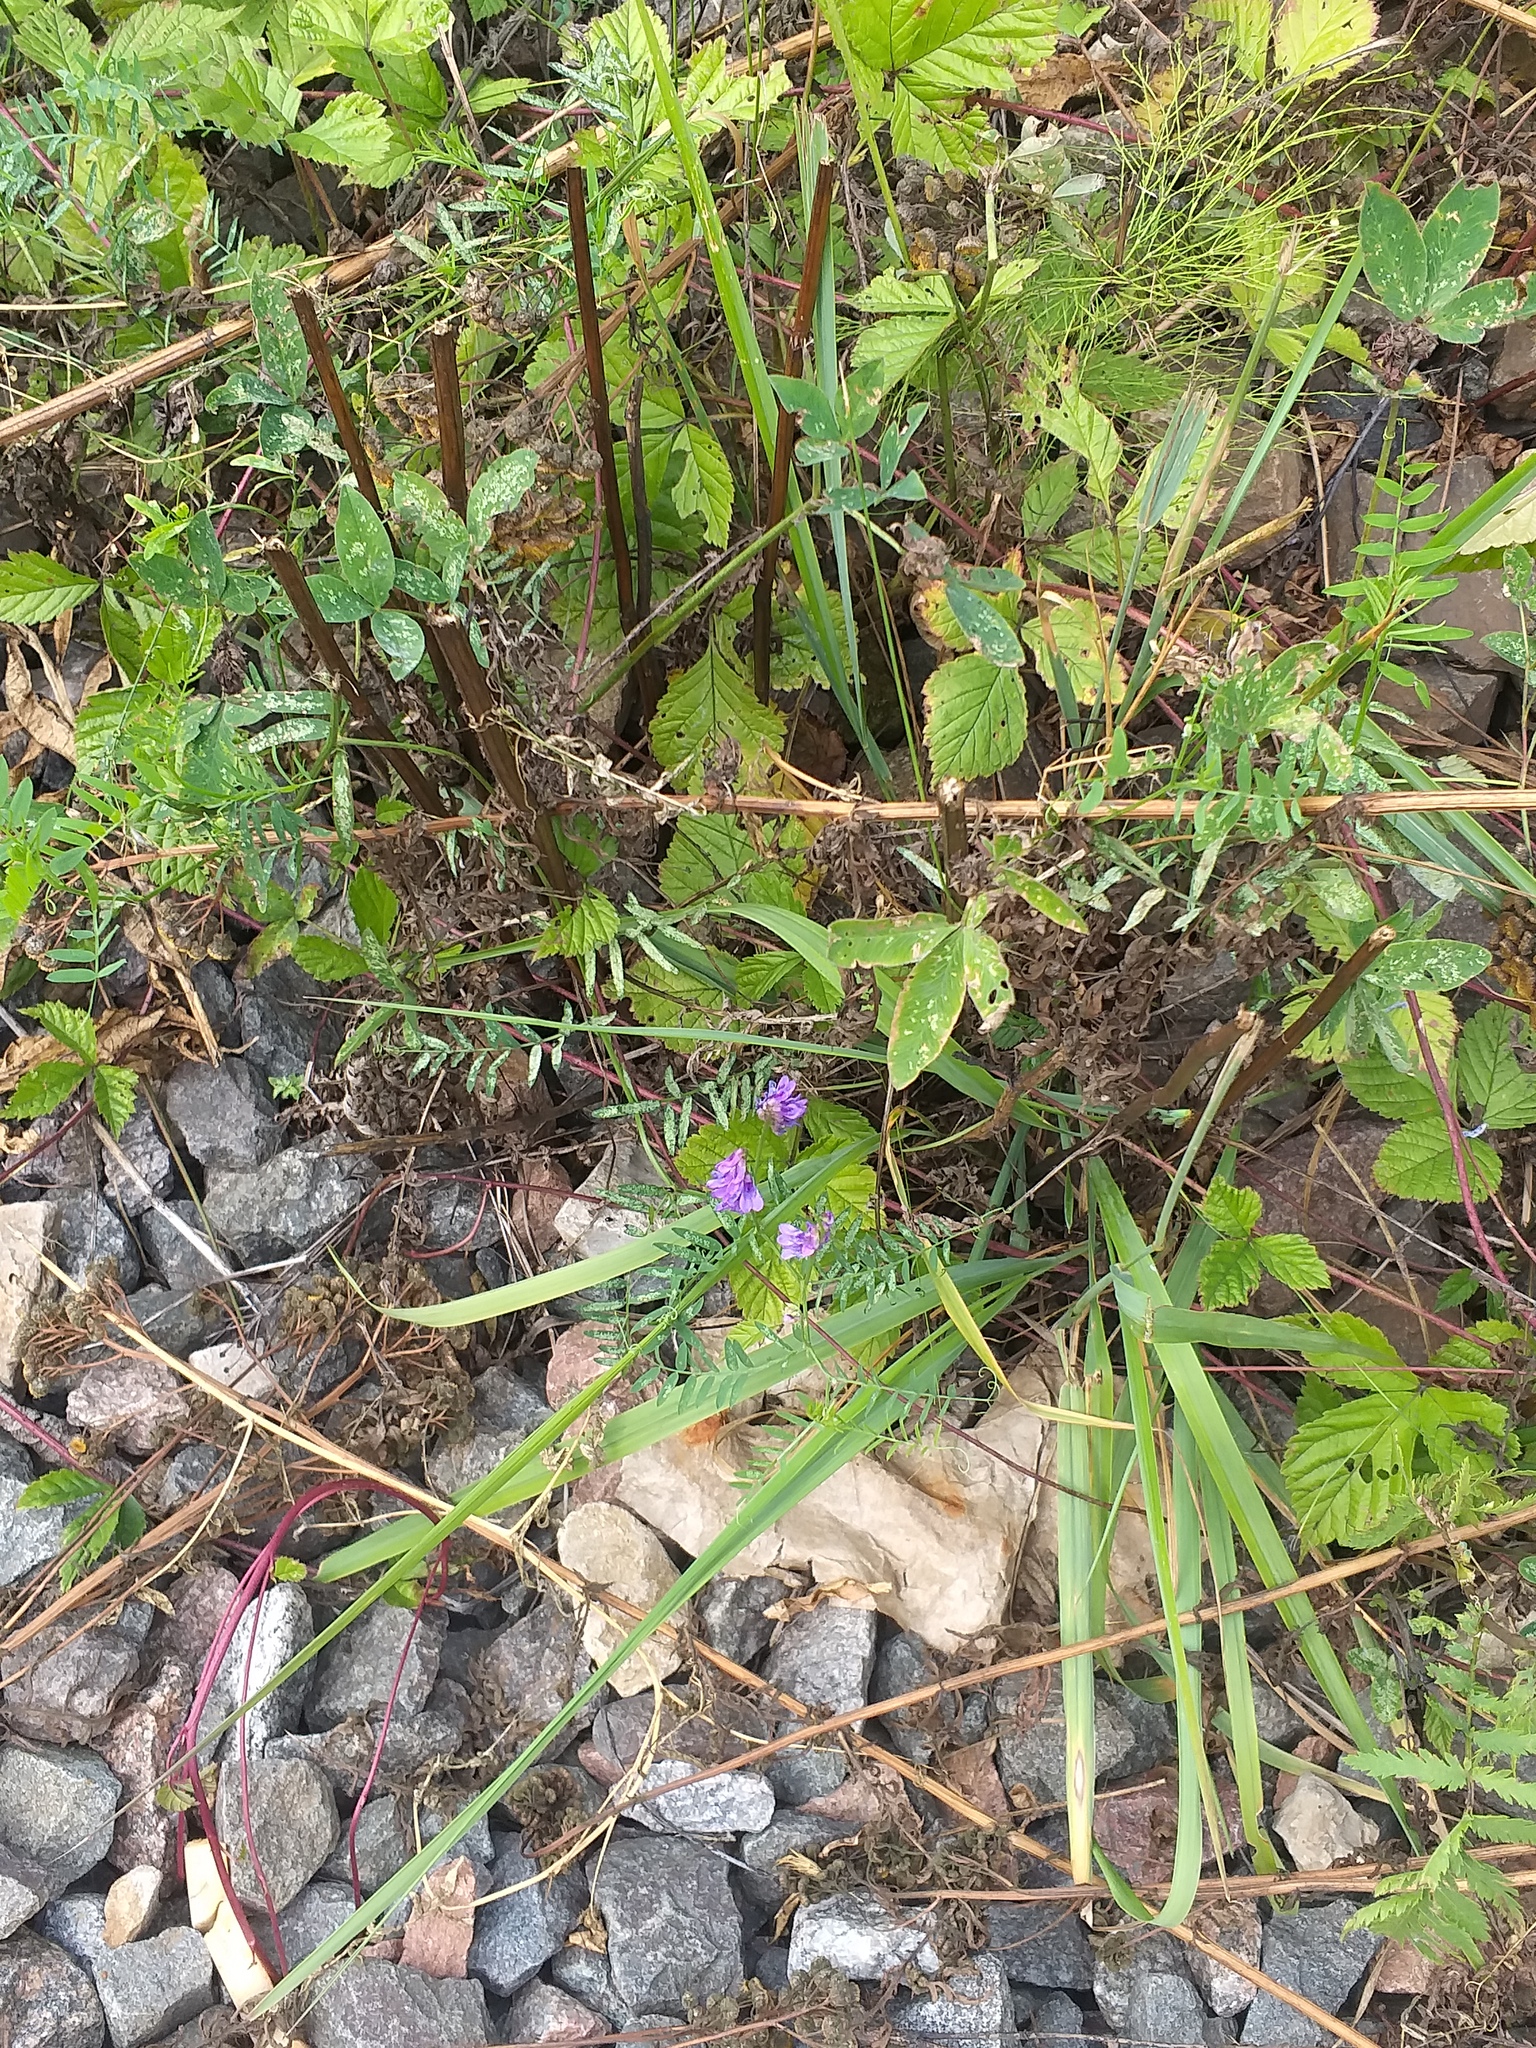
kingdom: Plantae
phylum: Tracheophyta
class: Magnoliopsida
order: Fabales
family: Fabaceae
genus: Vicia
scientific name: Vicia cracca
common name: Bird vetch
